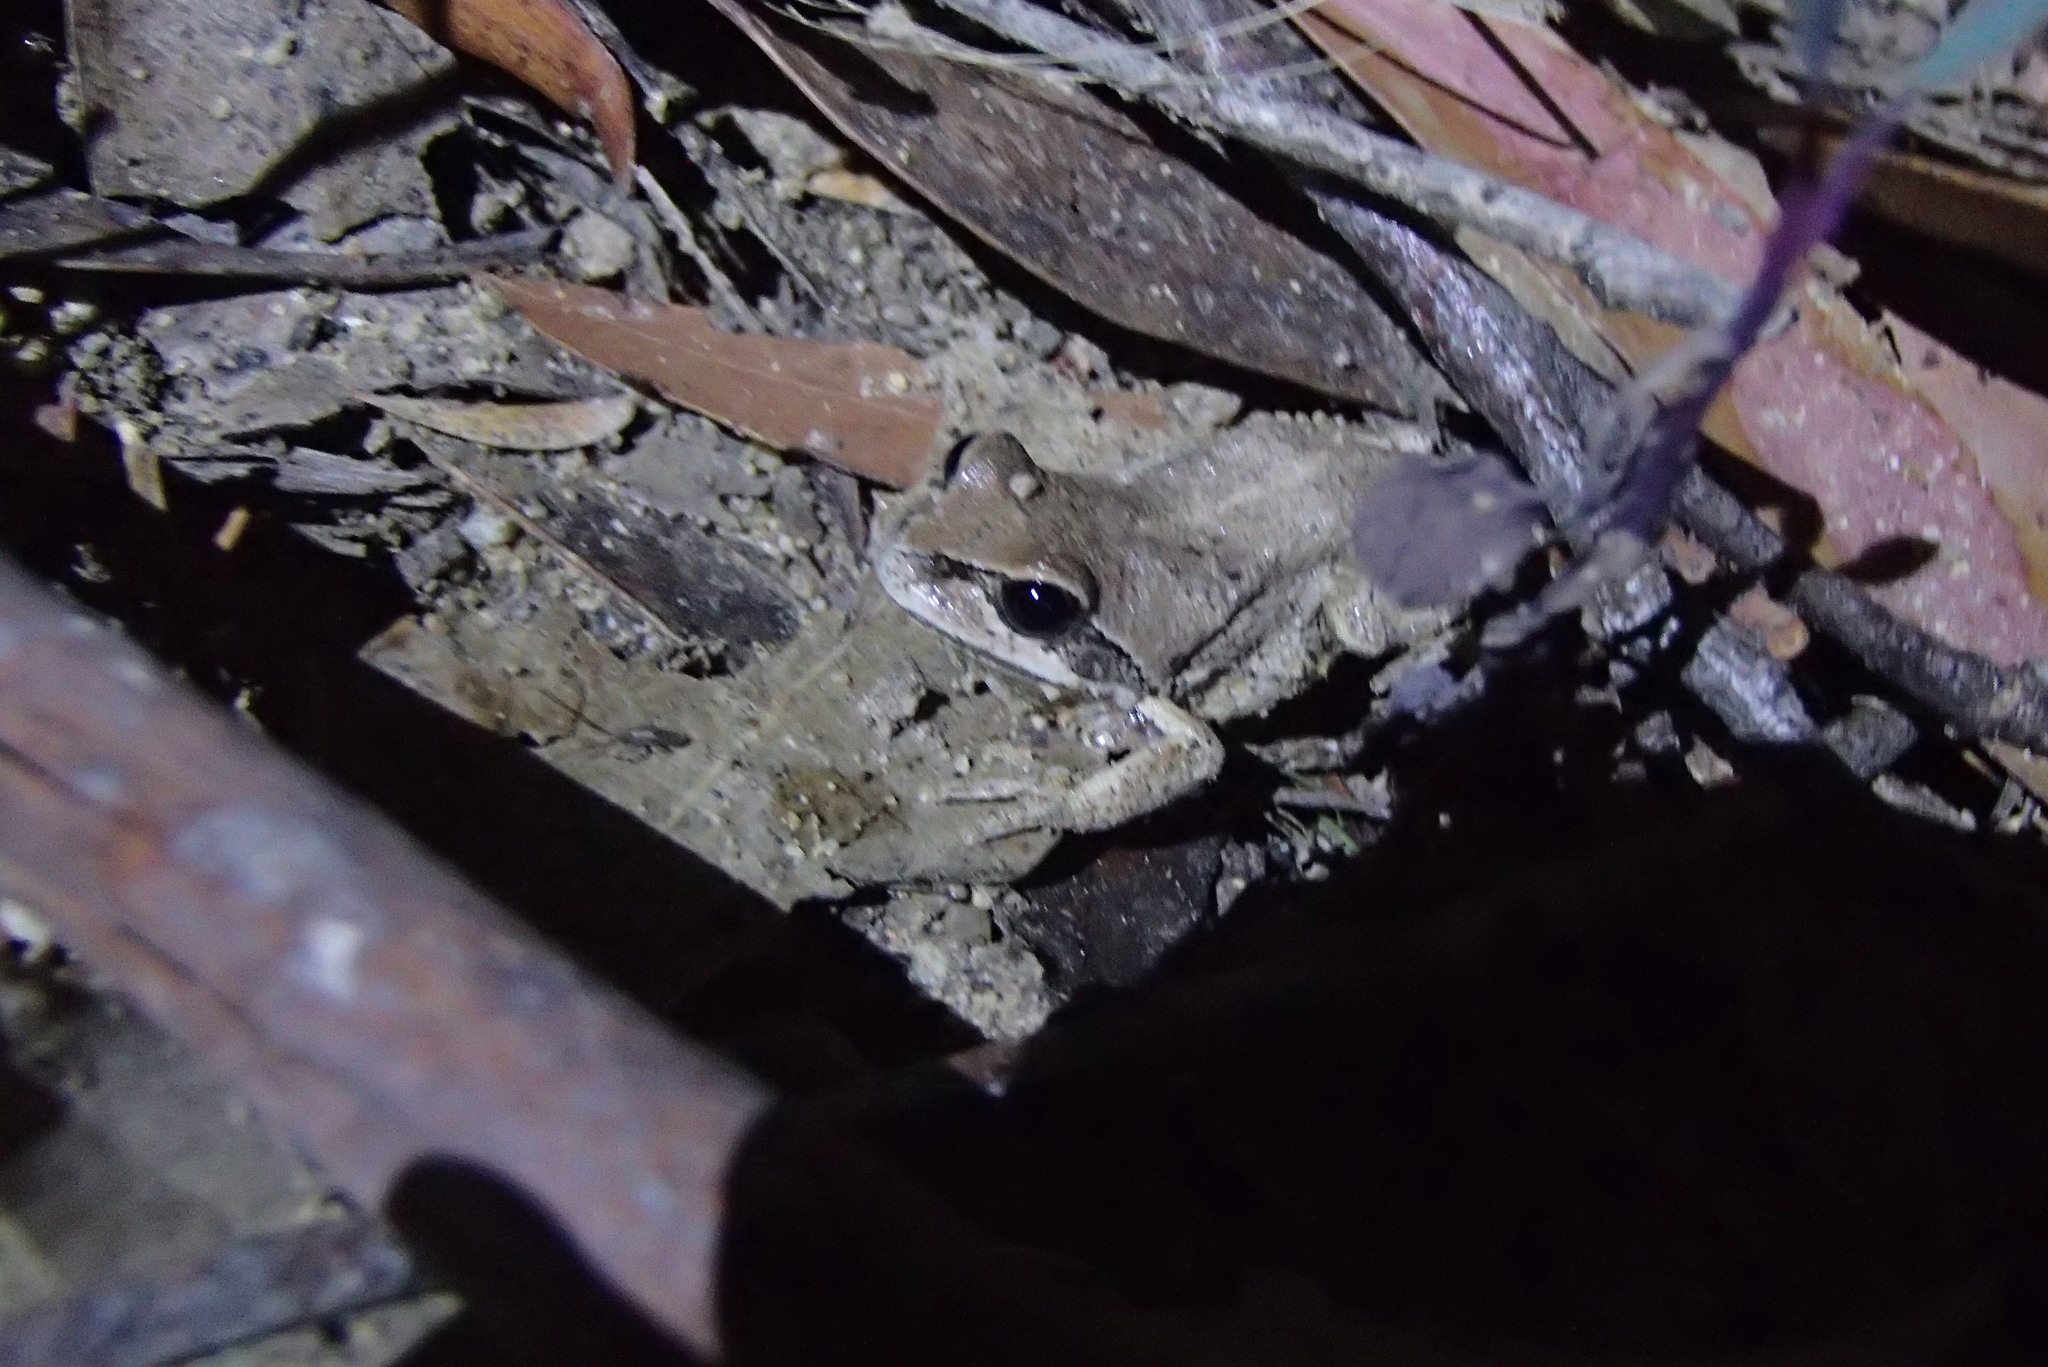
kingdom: Animalia
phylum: Chordata
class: Amphibia
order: Anura
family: Pelodryadidae
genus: Litoria
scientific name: Litoria verreauxii
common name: Alpine tree frog
